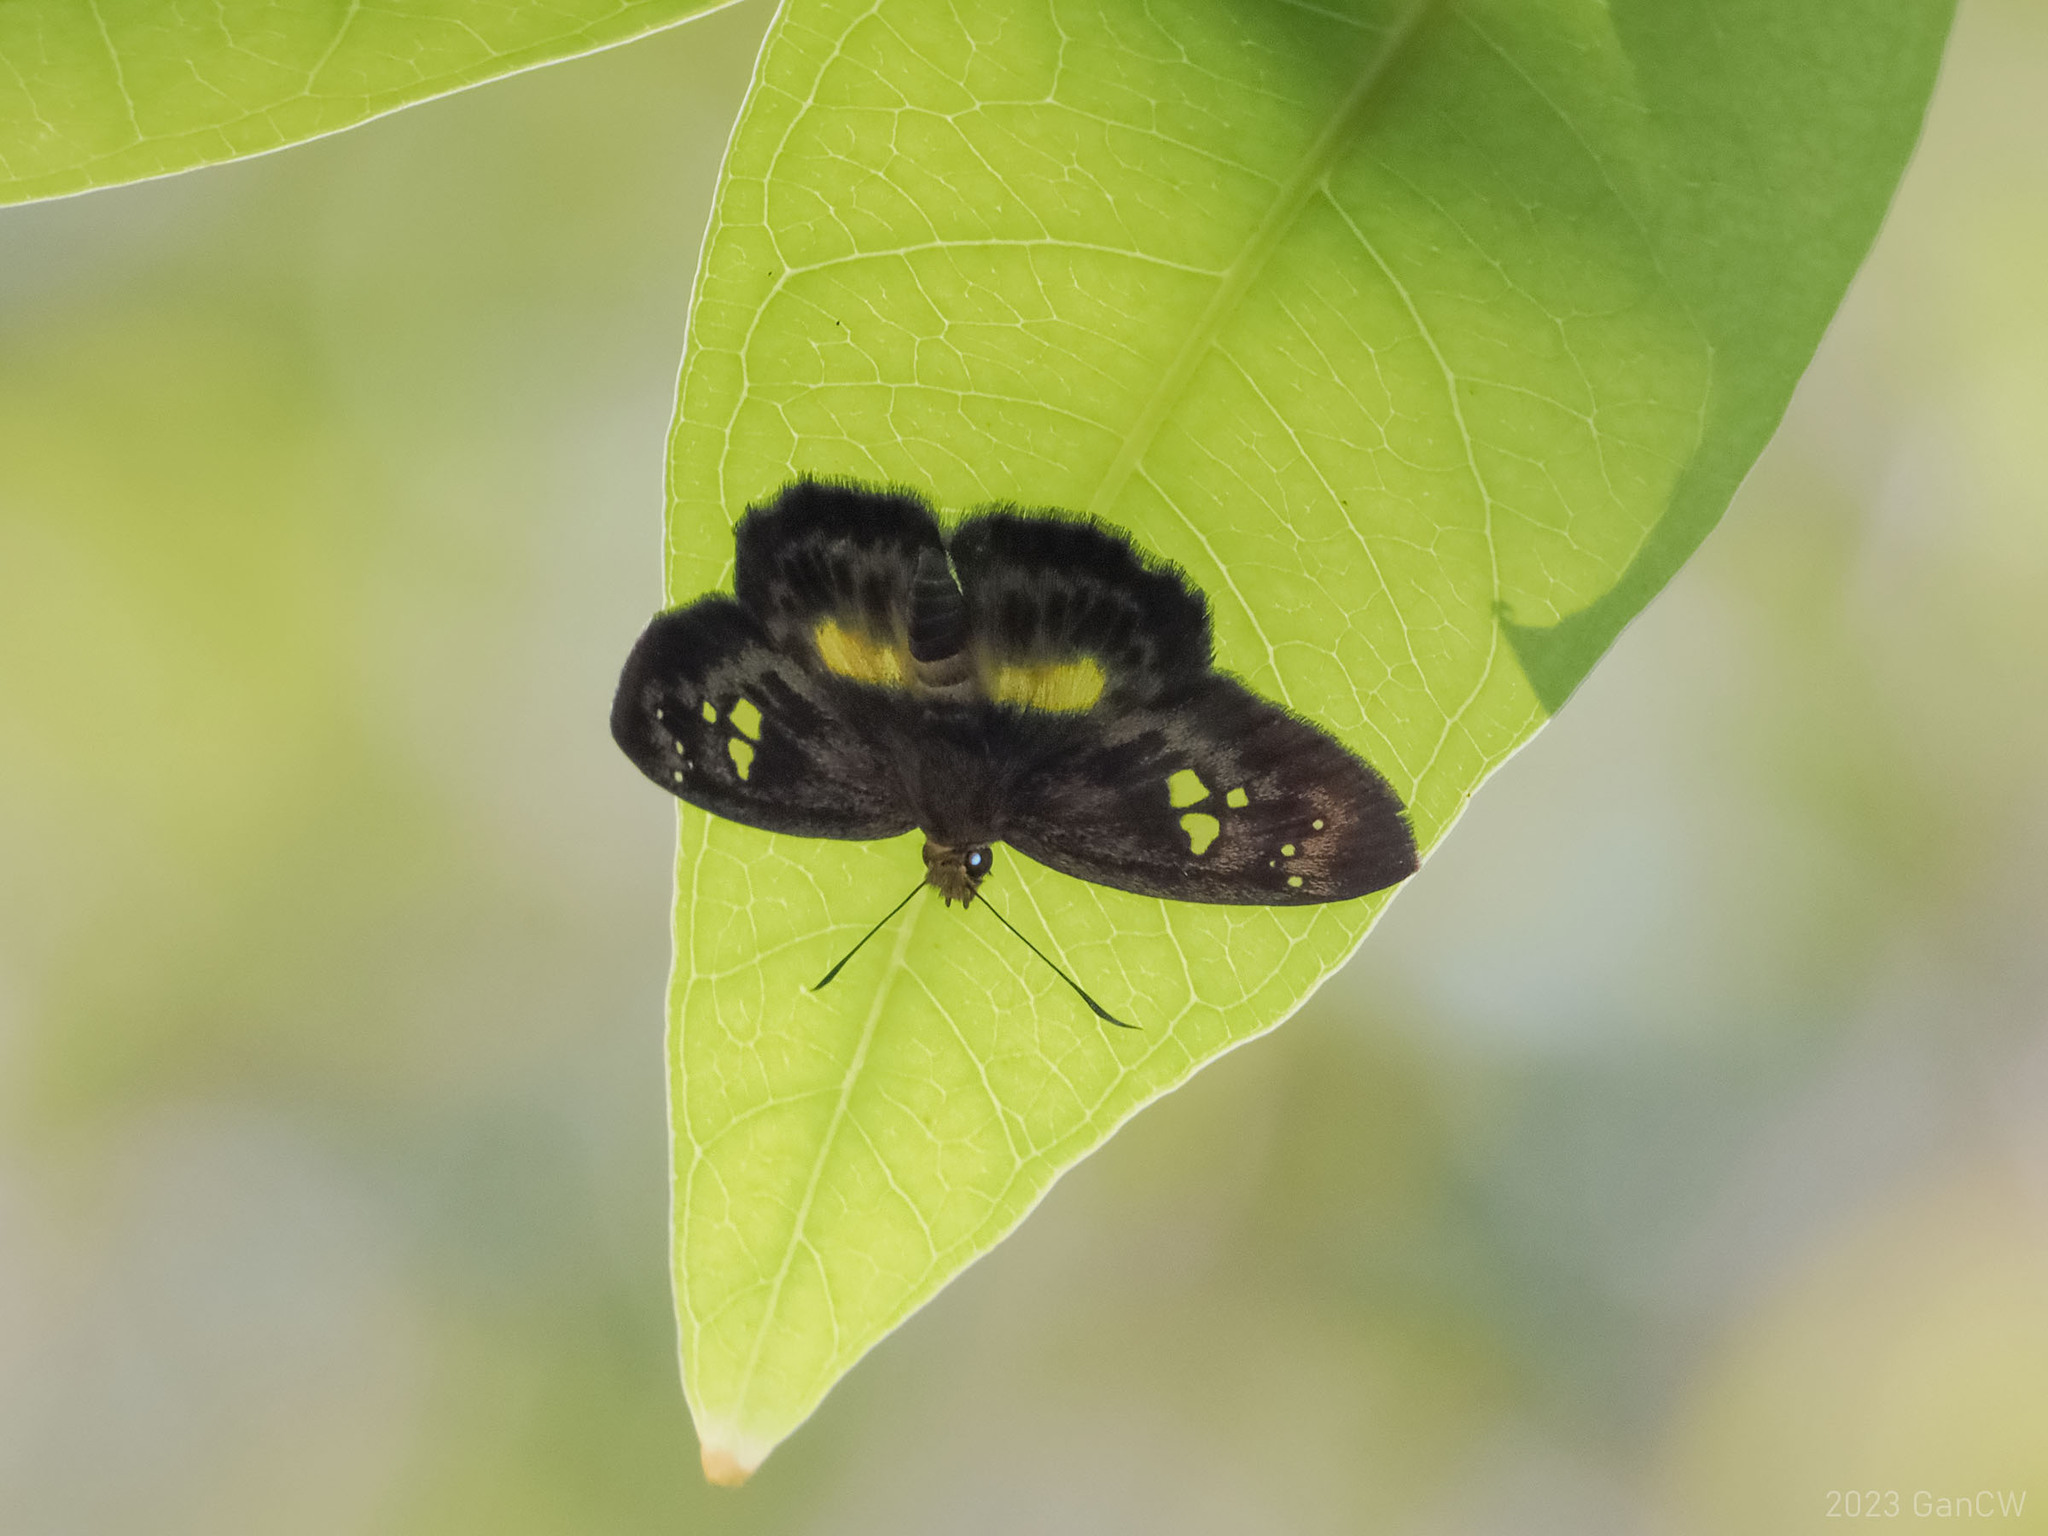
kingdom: Animalia
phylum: Arthropoda
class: Insecta
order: Lepidoptera
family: Hesperiidae
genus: Daimio
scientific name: Daimio
